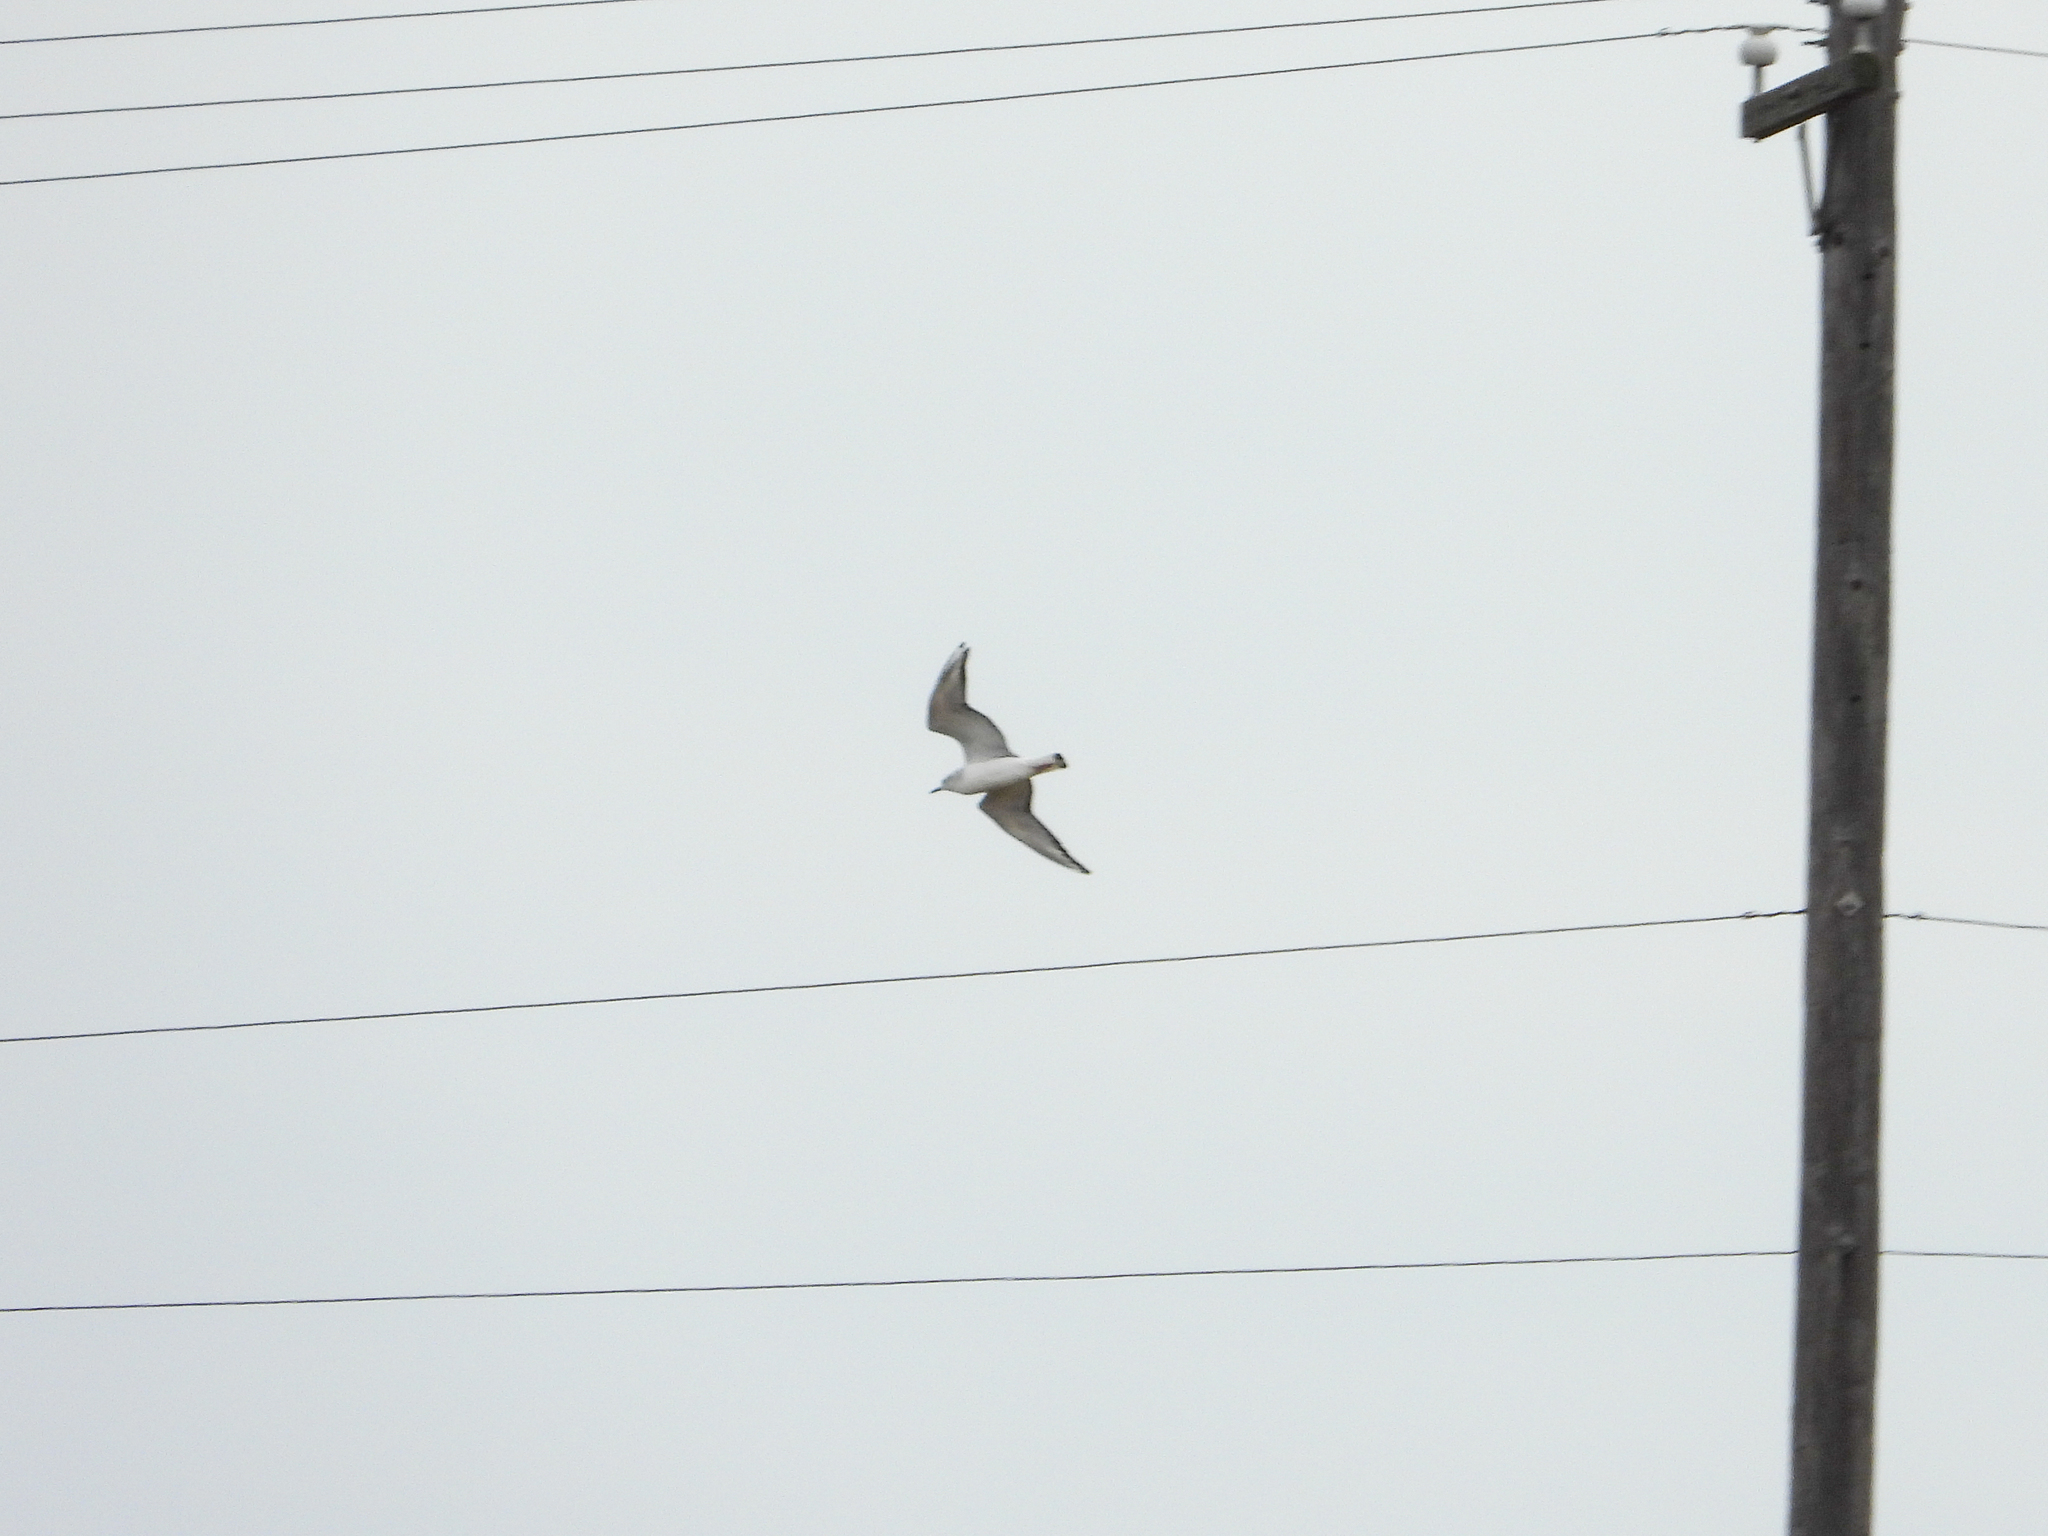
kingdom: Animalia
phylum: Chordata
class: Aves
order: Charadriiformes
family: Laridae
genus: Chroicocephalus
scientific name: Chroicocephalus philadelphia
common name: Bonaparte's gull
